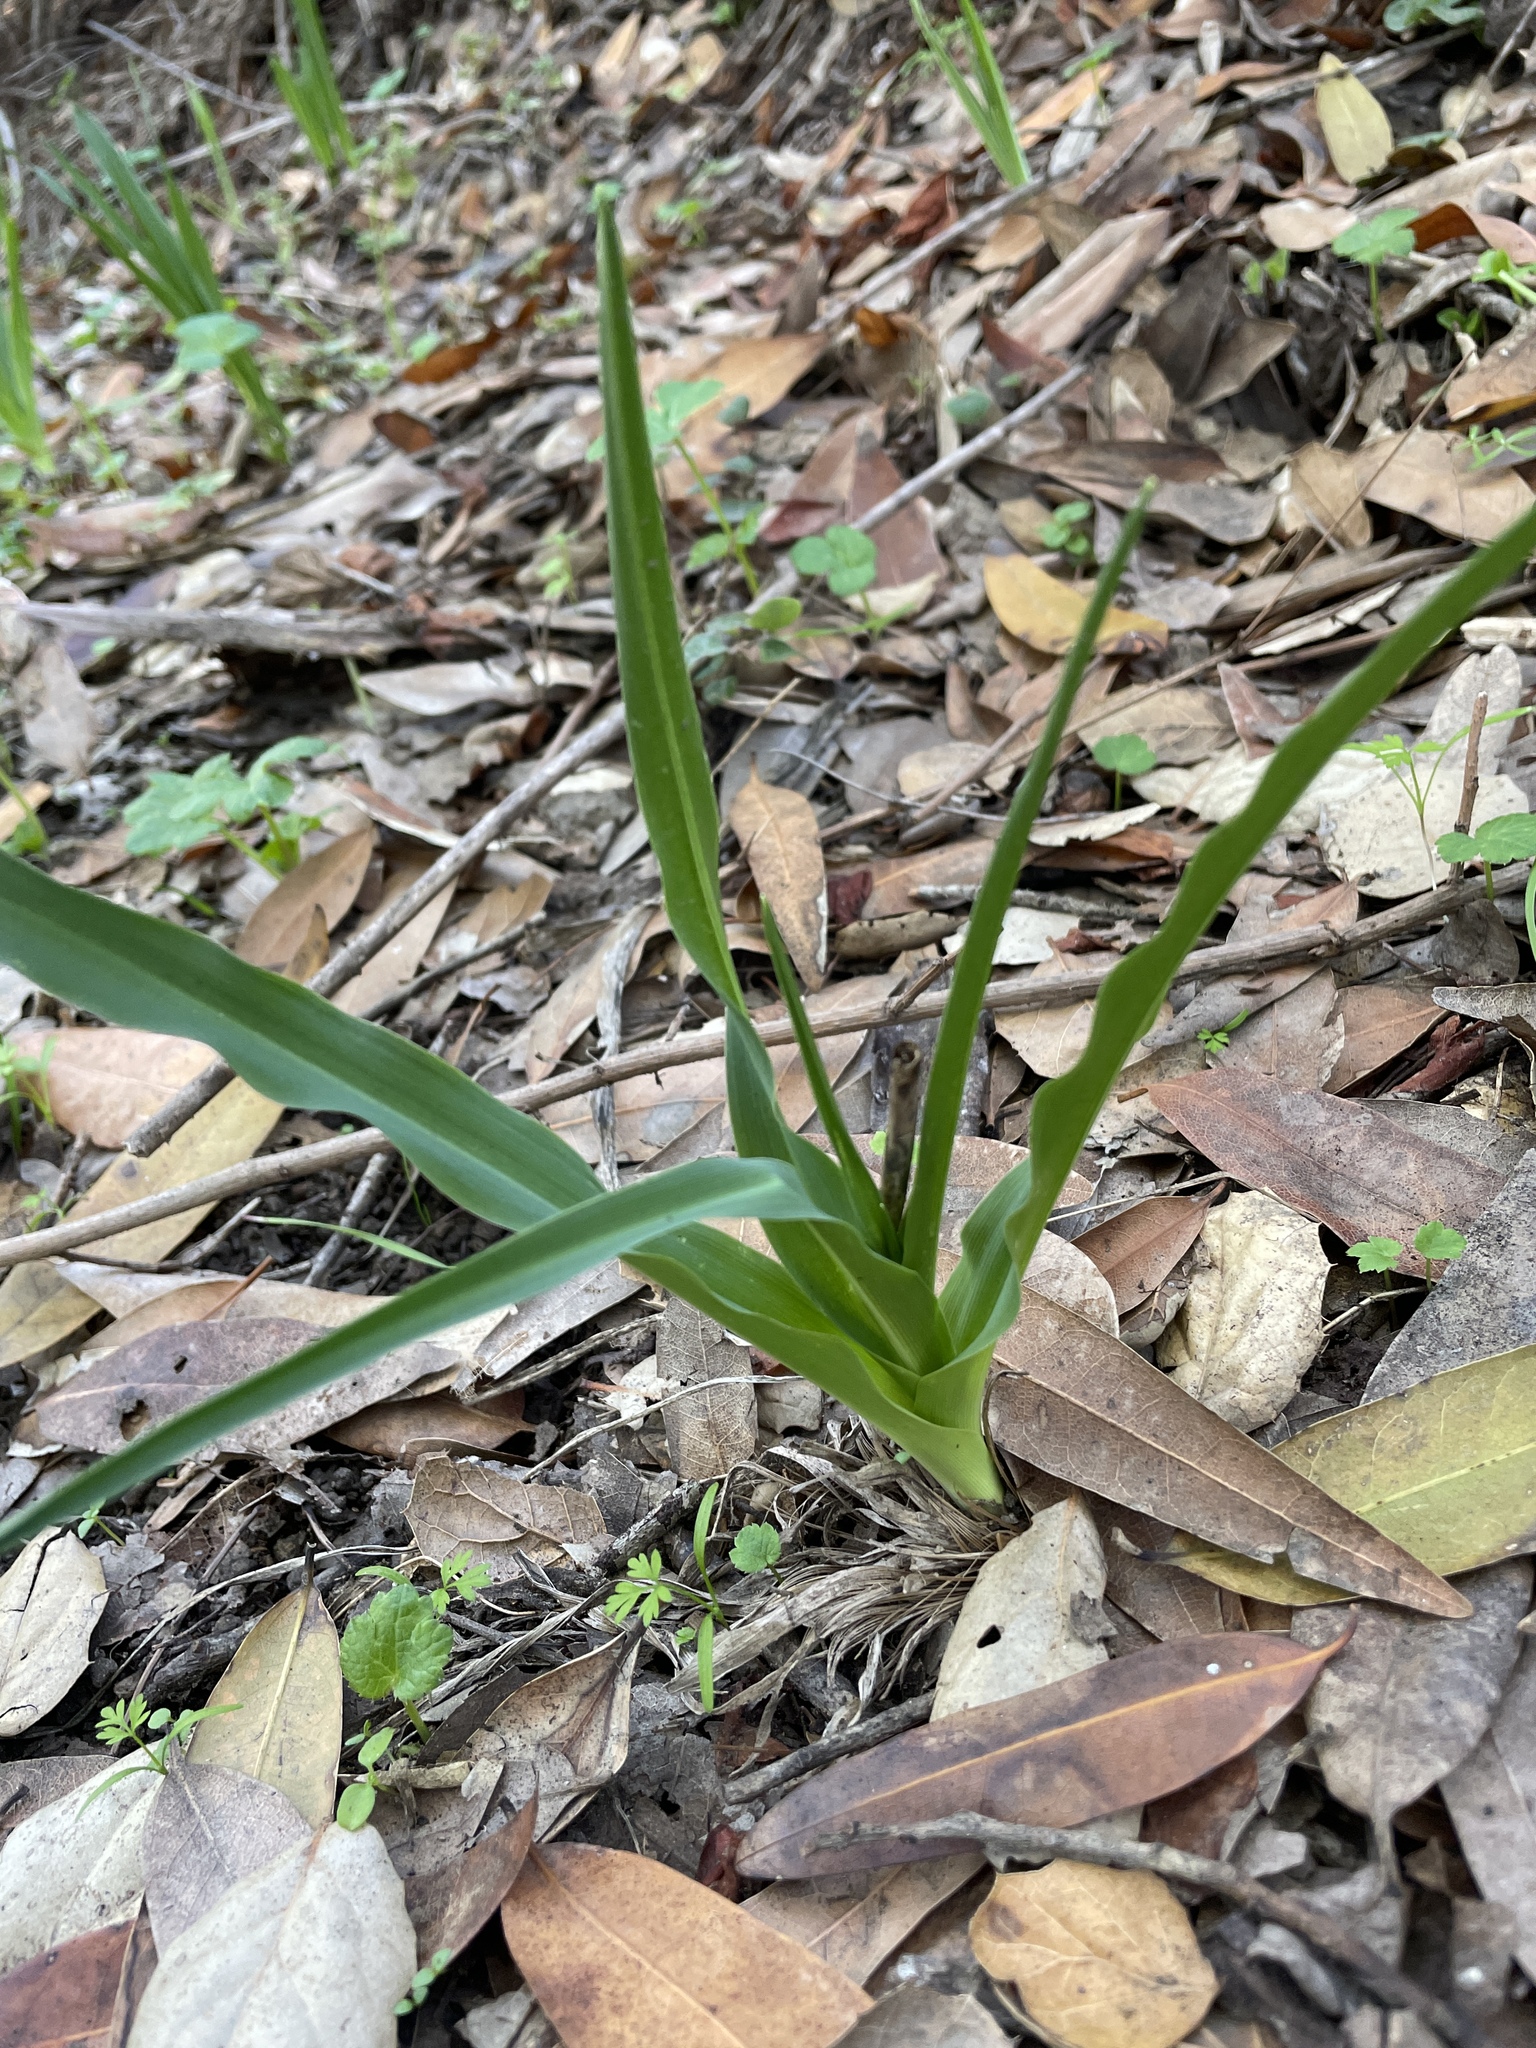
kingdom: Plantae
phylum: Tracheophyta
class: Liliopsida
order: Asparagales
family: Asparagaceae
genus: Chlorogalum
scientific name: Chlorogalum pomeridianum
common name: Amole
